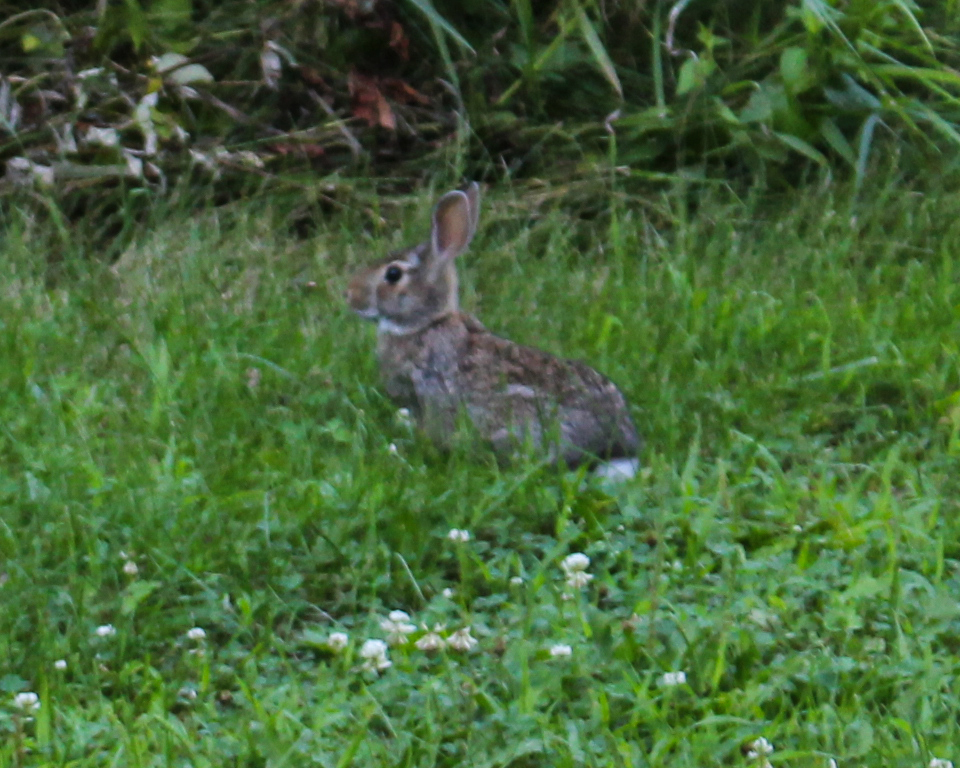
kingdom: Animalia
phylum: Chordata
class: Mammalia
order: Lagomorpha
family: Leporidae
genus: Sylvilagus
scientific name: Sylvilagus floridanus
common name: Eastern cottontail
